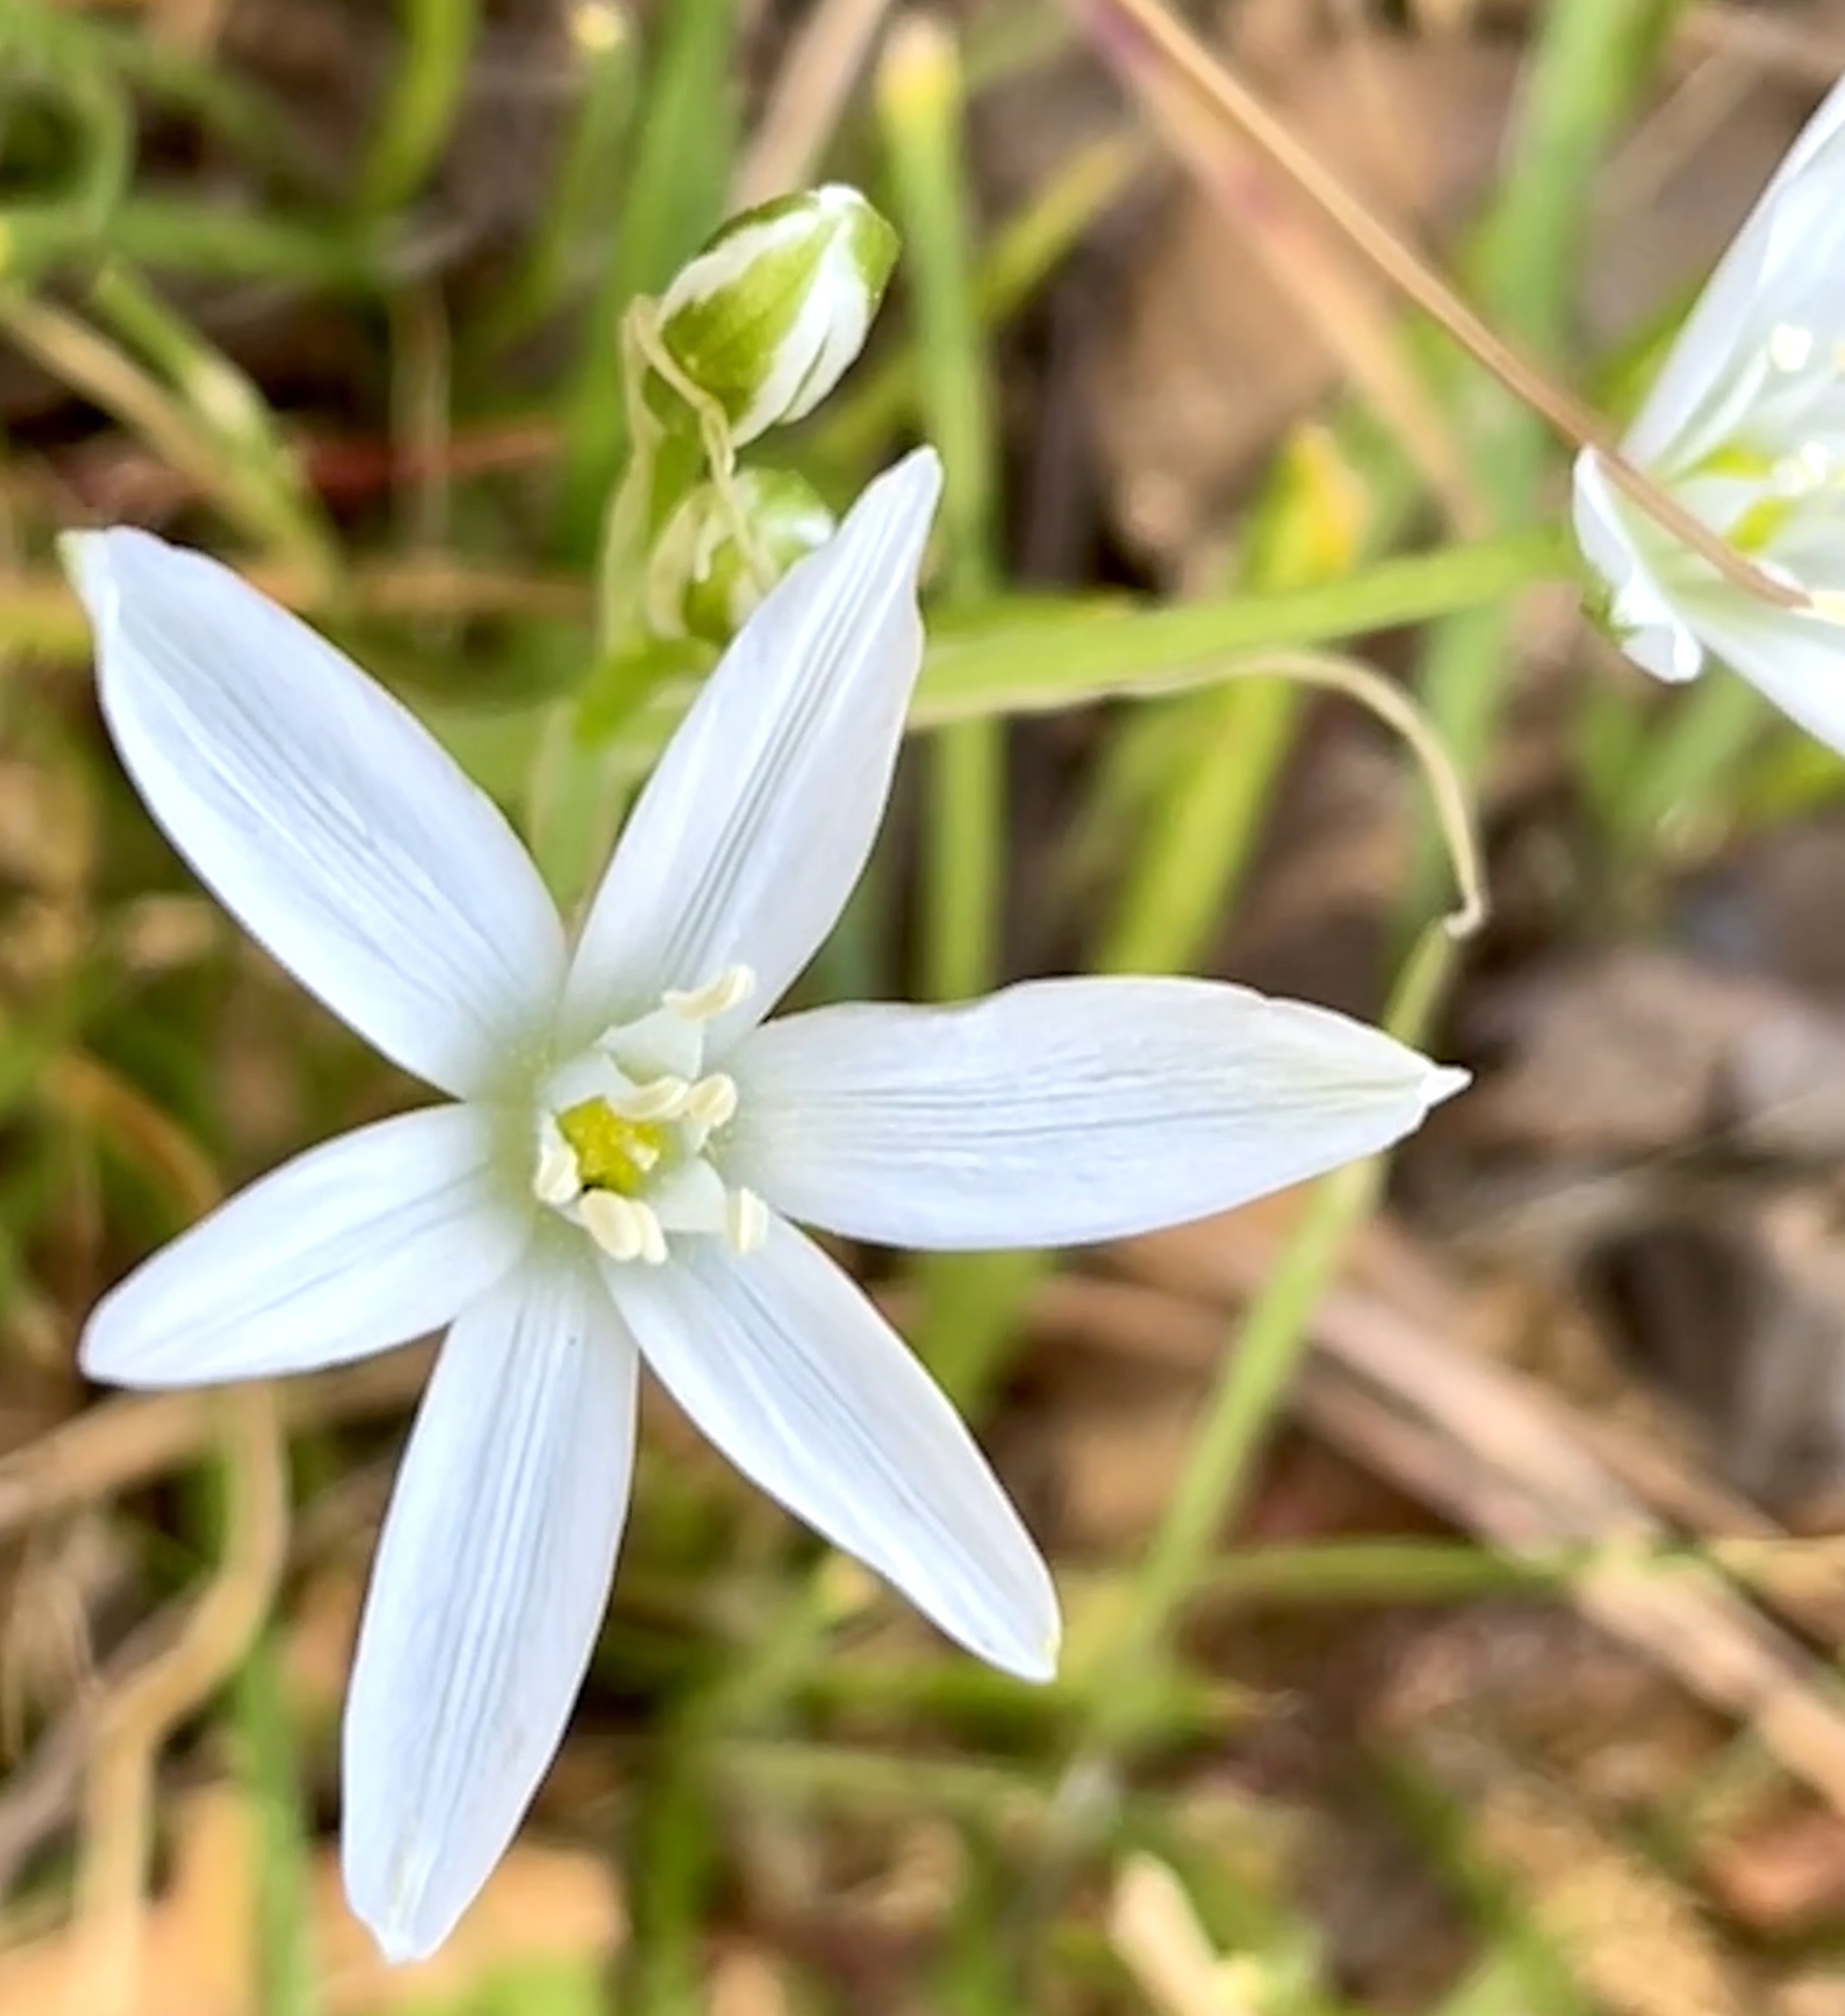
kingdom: Plantae
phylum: Tracheophyta
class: Liliopsida
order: Asparagales
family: Asparagaceae
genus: Ornithogalum
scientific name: Ornithogalum umbellatum
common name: Garden star-of-bethlehem
